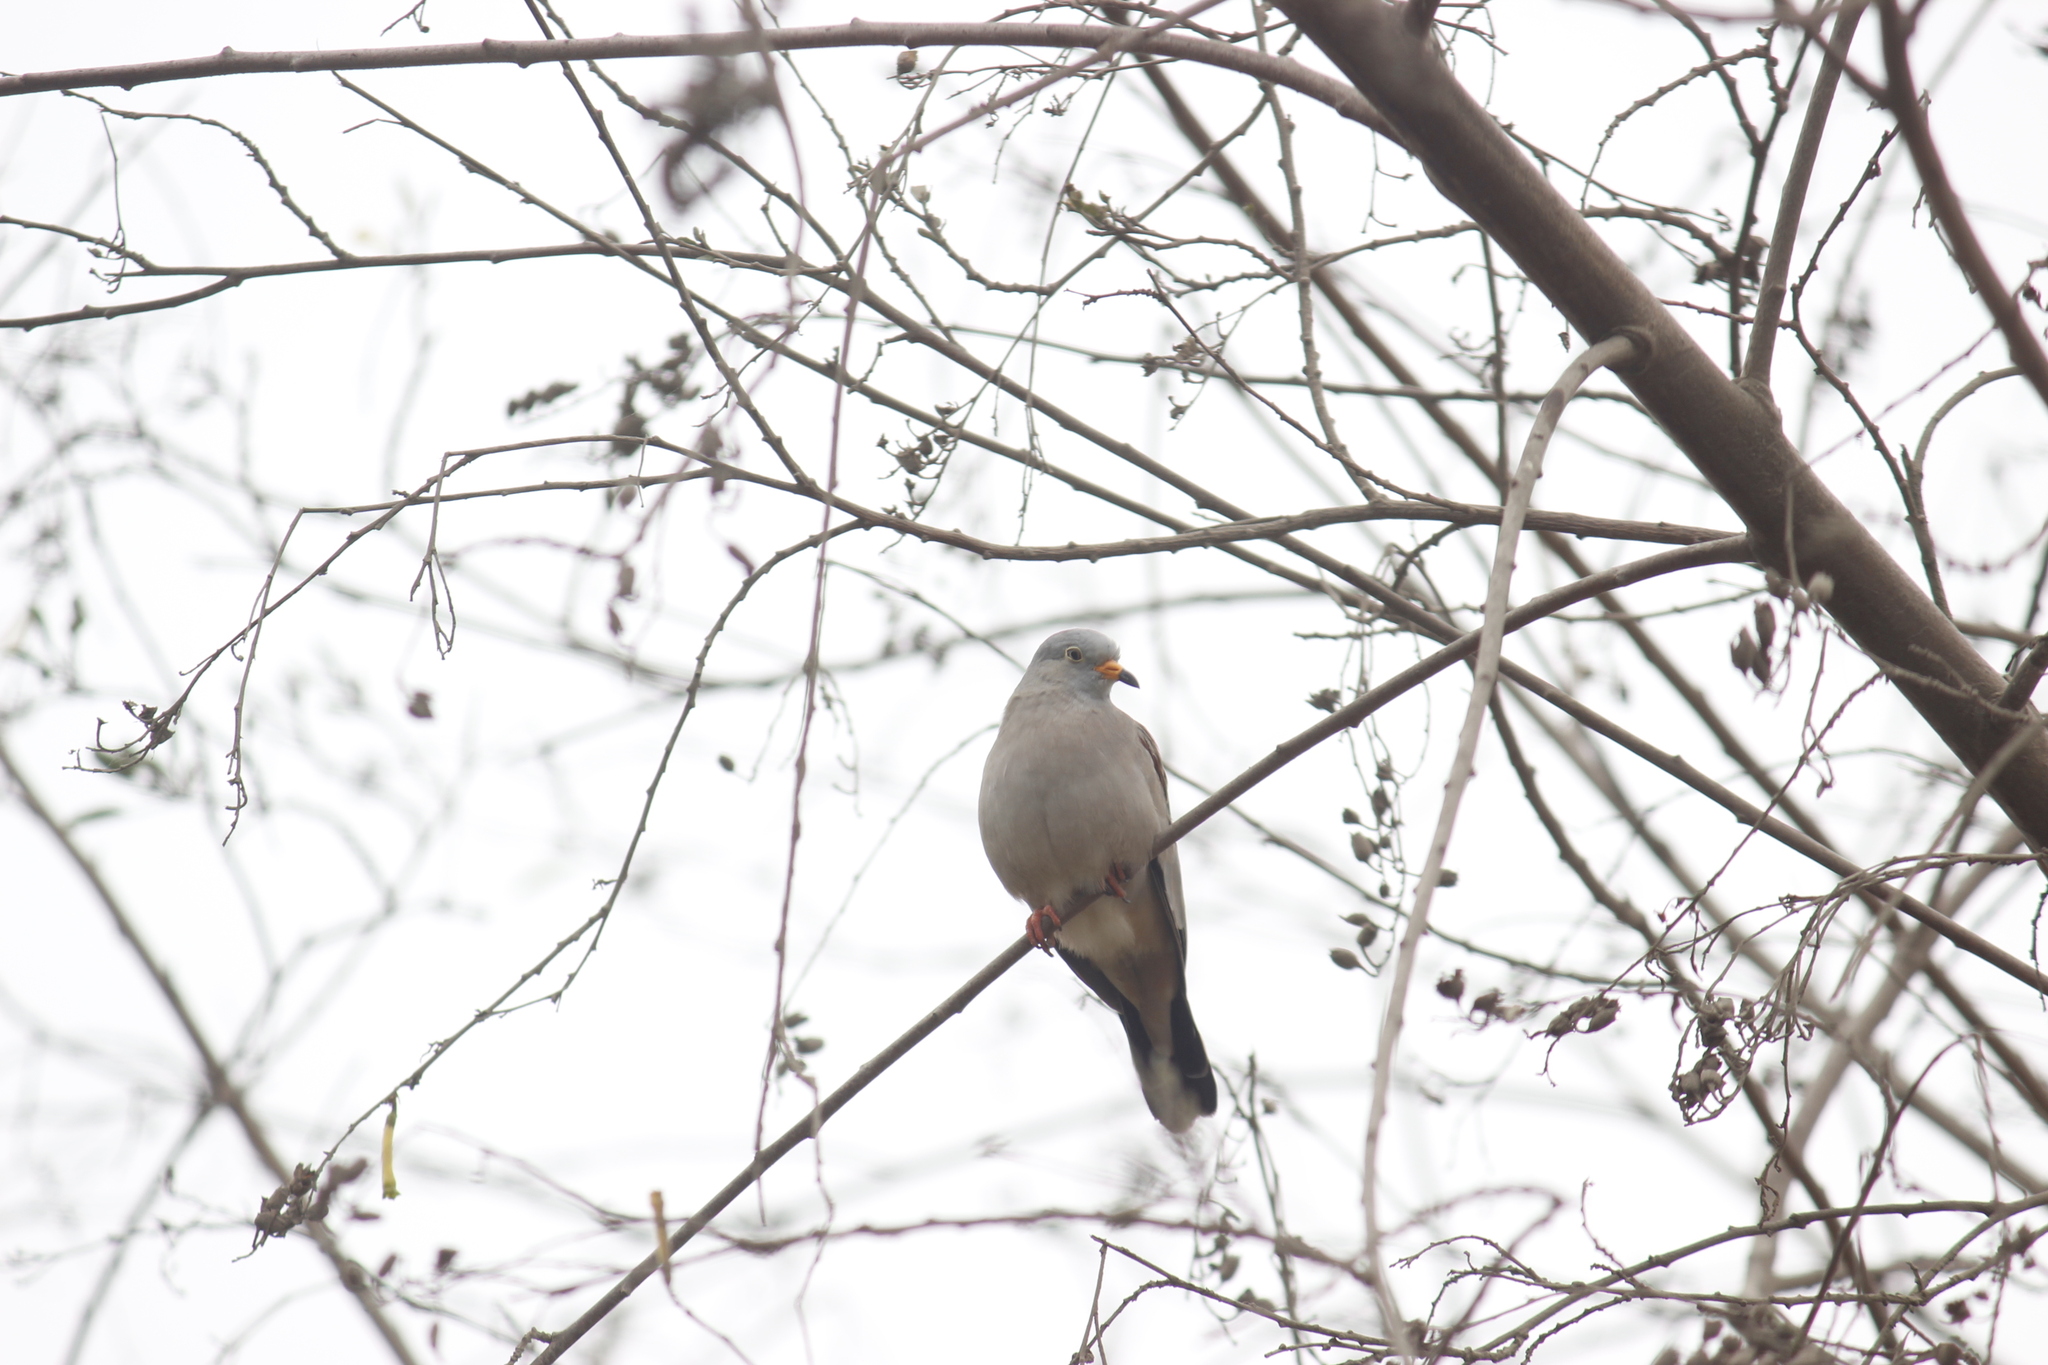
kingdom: Animalia
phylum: Chordata
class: Aves
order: Columbiformes
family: Columbidae
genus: Columbina
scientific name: Columbina cruziana
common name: Croaking ground dove
